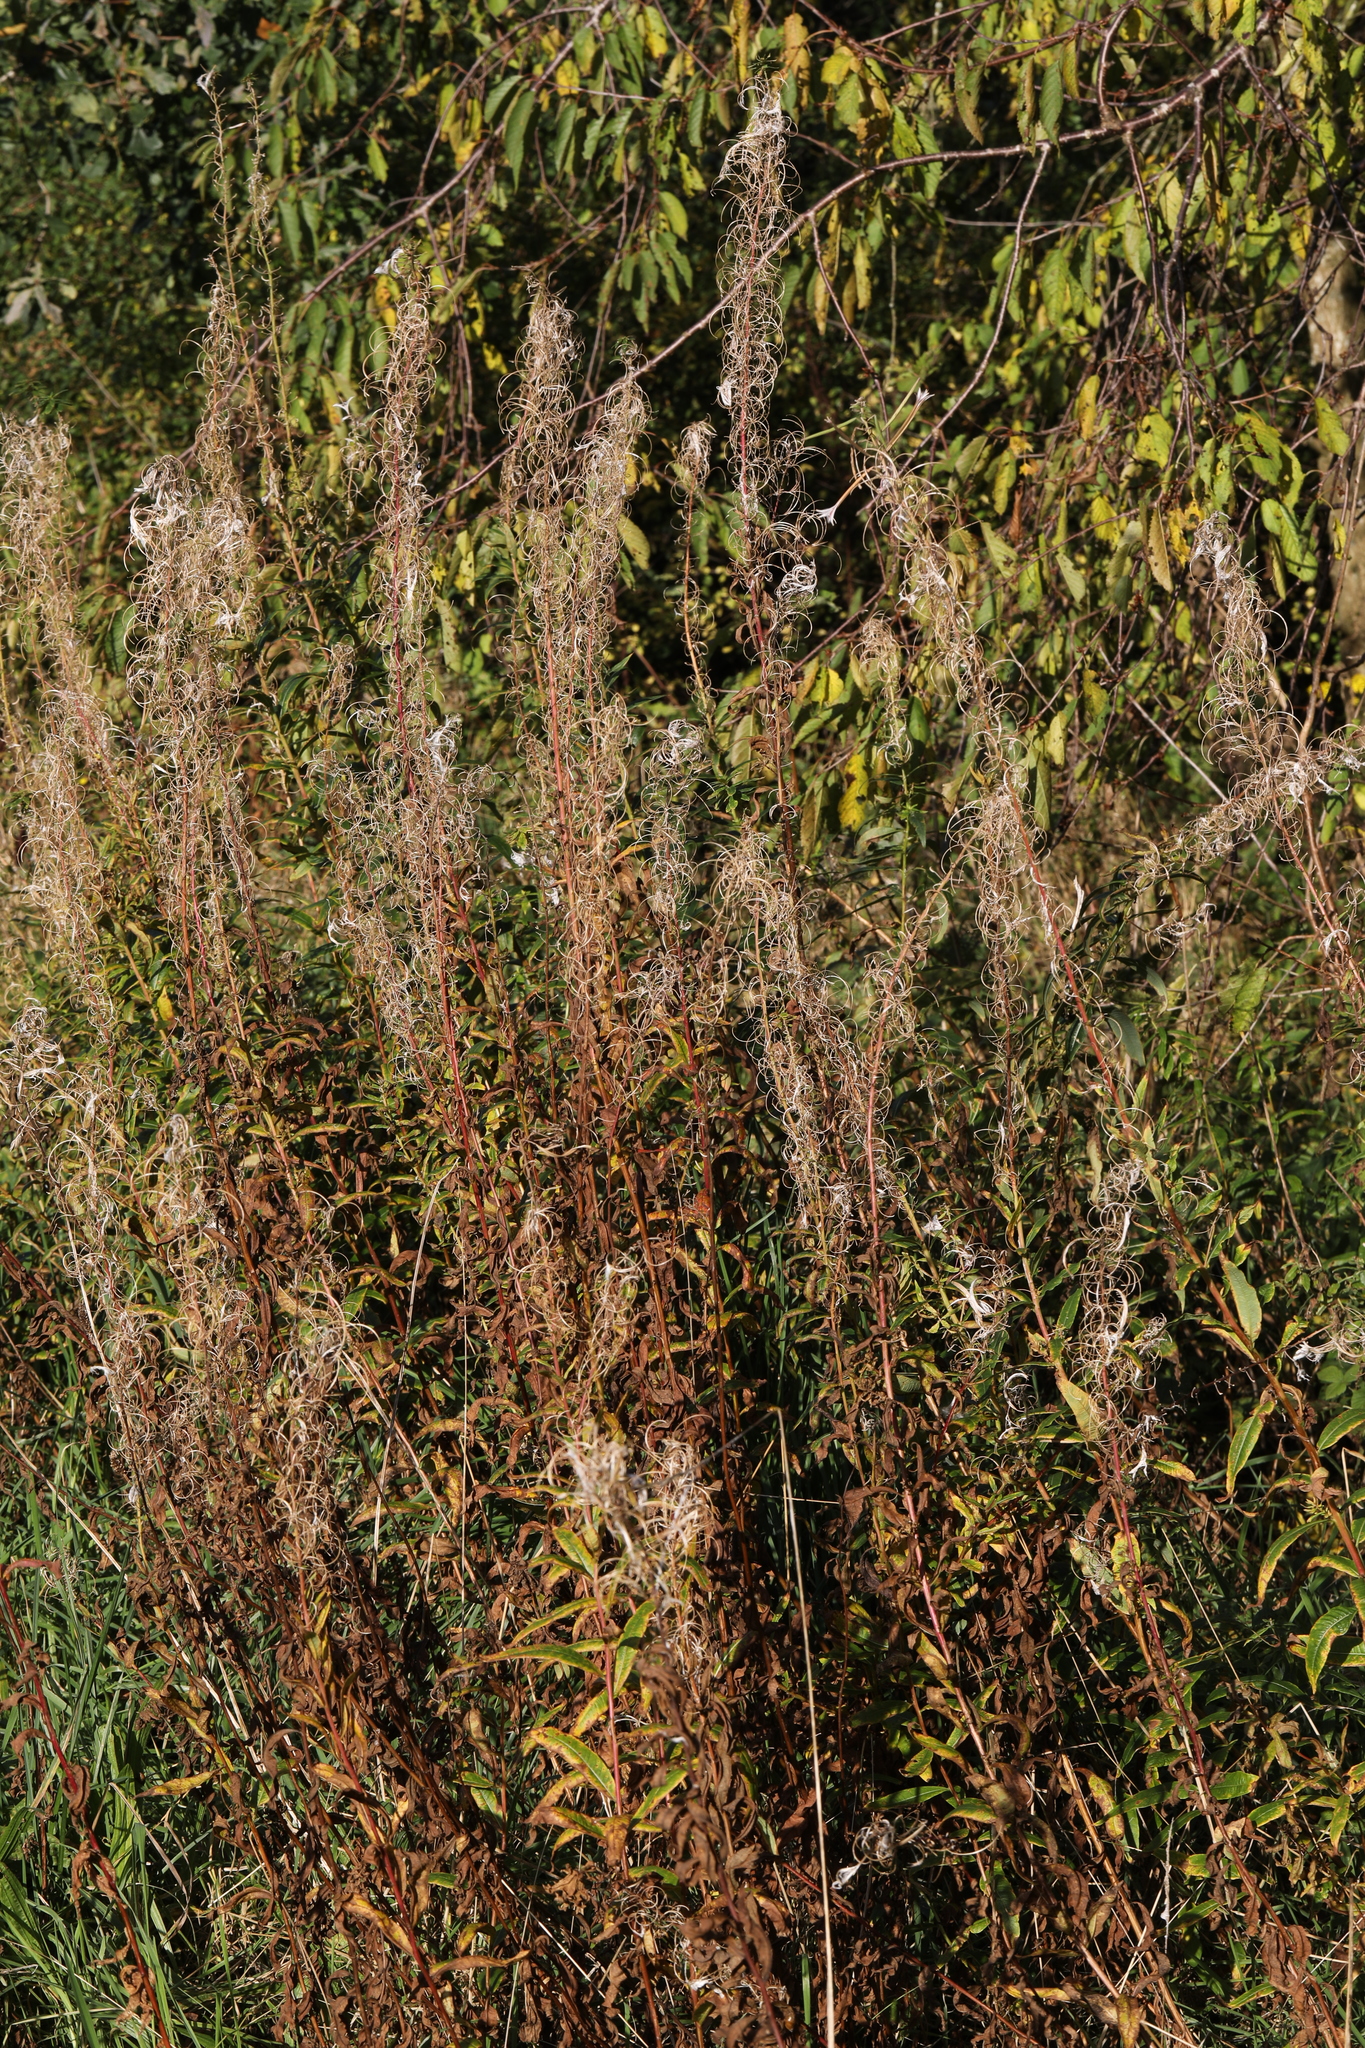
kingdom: Plantae
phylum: Tracheophyta
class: Magnoliopsida
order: Myrtales
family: Onagraceae
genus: Chamaenerion
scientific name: Chamaenerion angustifolium
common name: Fireweed
